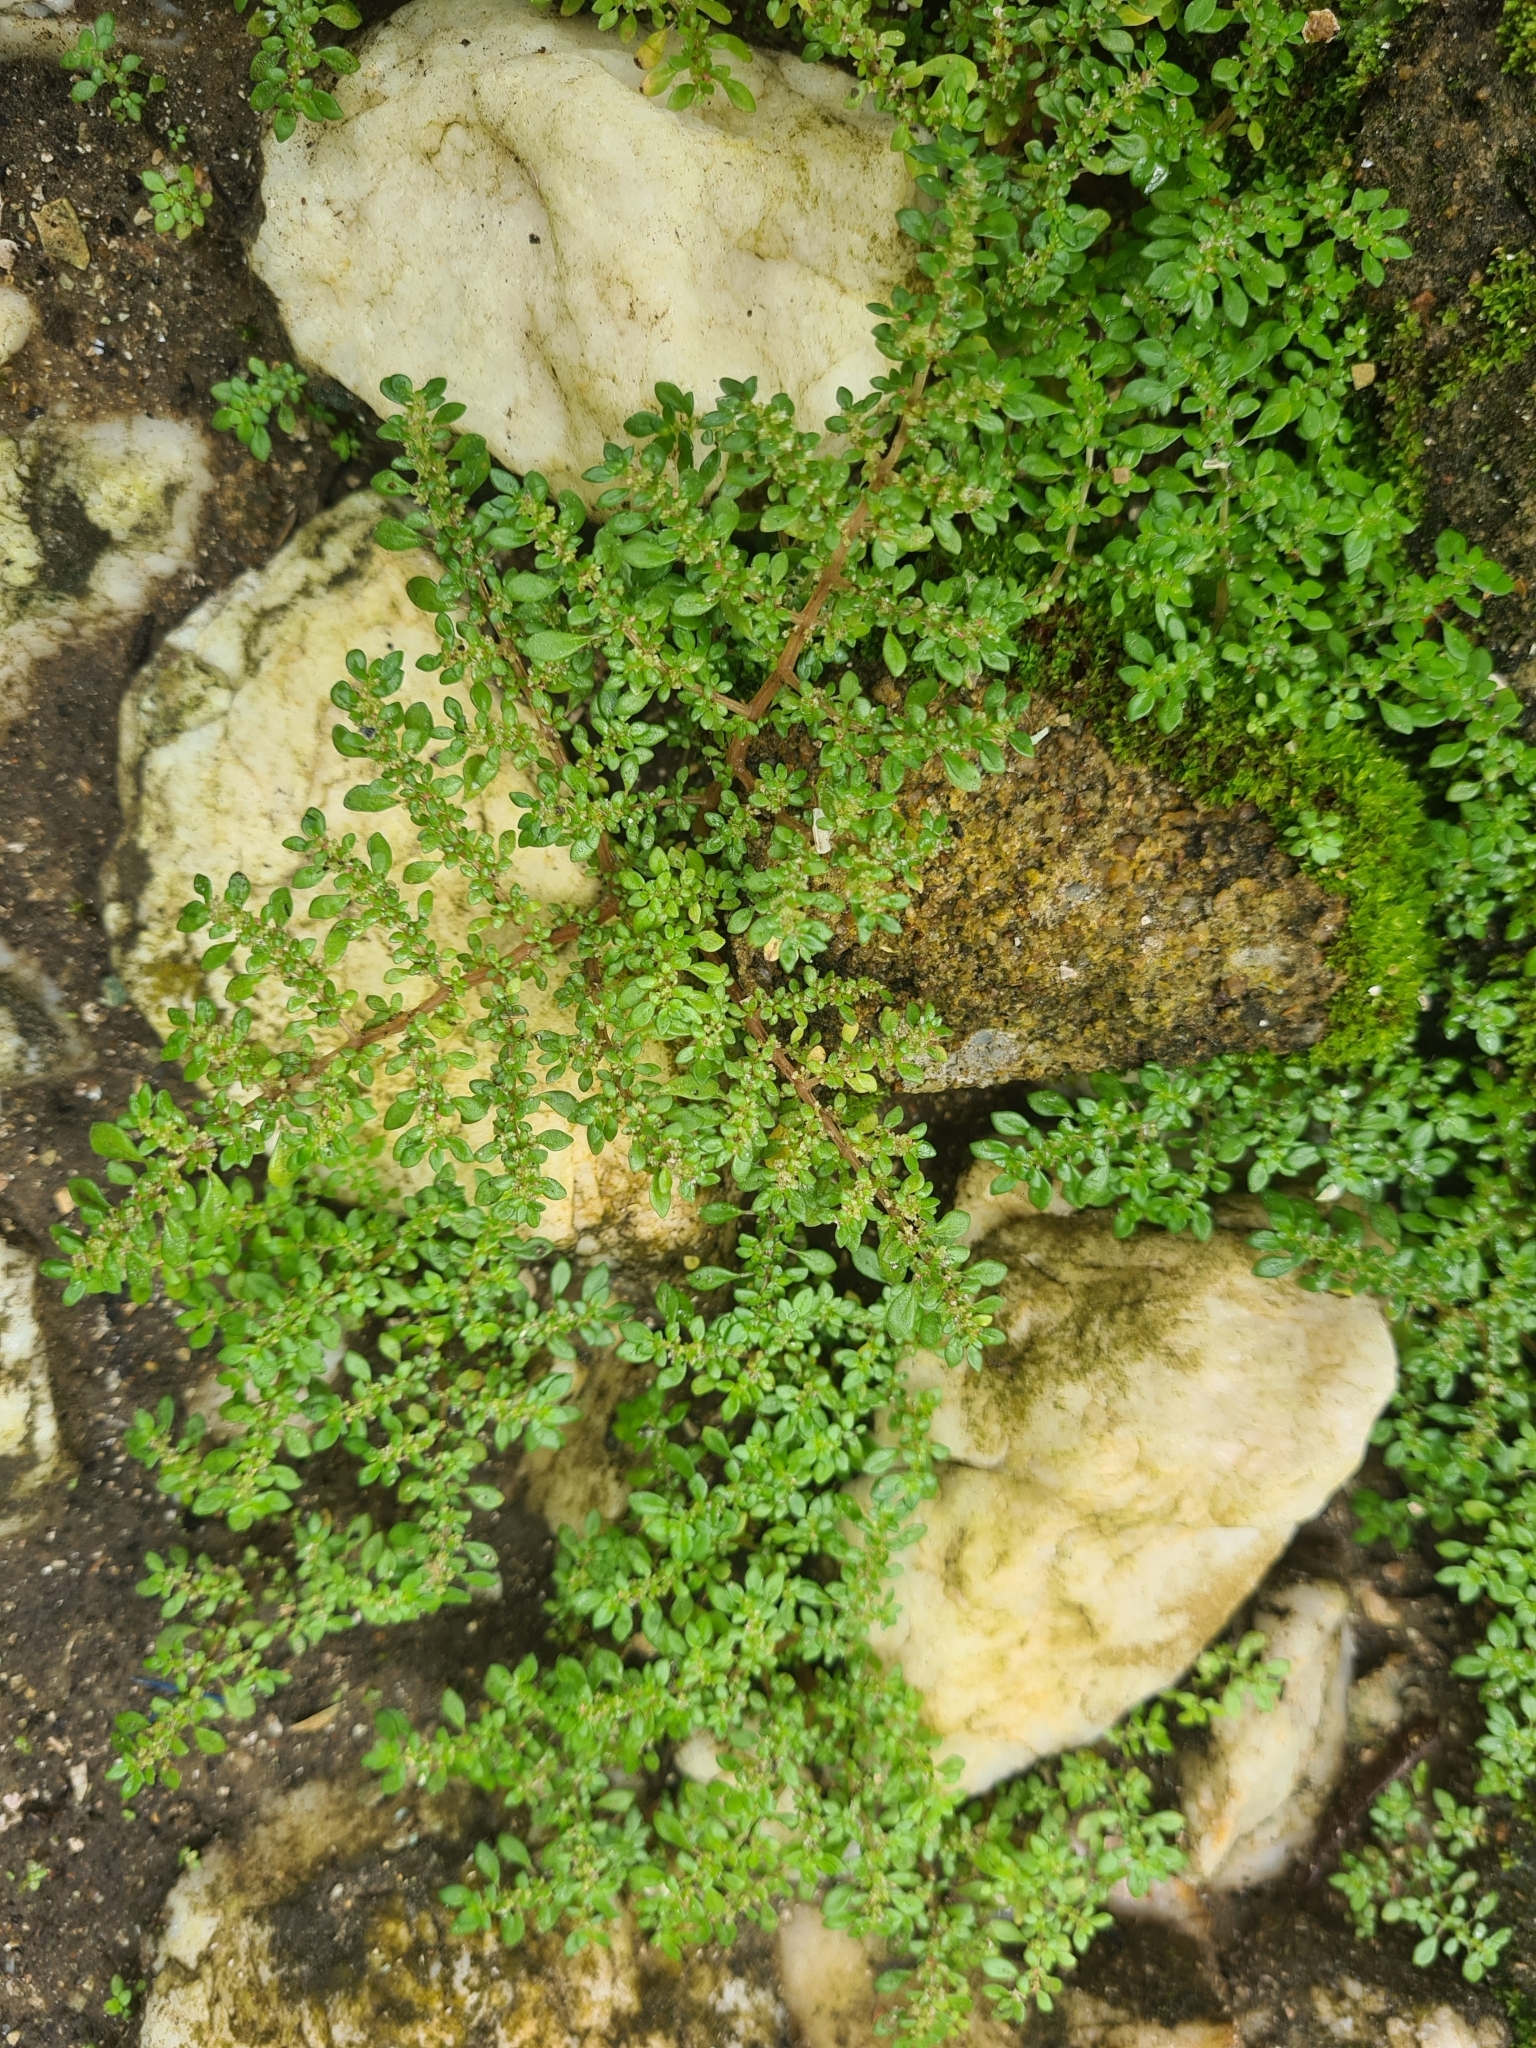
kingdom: Plantae
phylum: Tracheophyta
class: Magnoliopsida
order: Rosales
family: Urticaceae
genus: Pilea
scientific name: Pilea microphylla
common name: Artillery-plant
